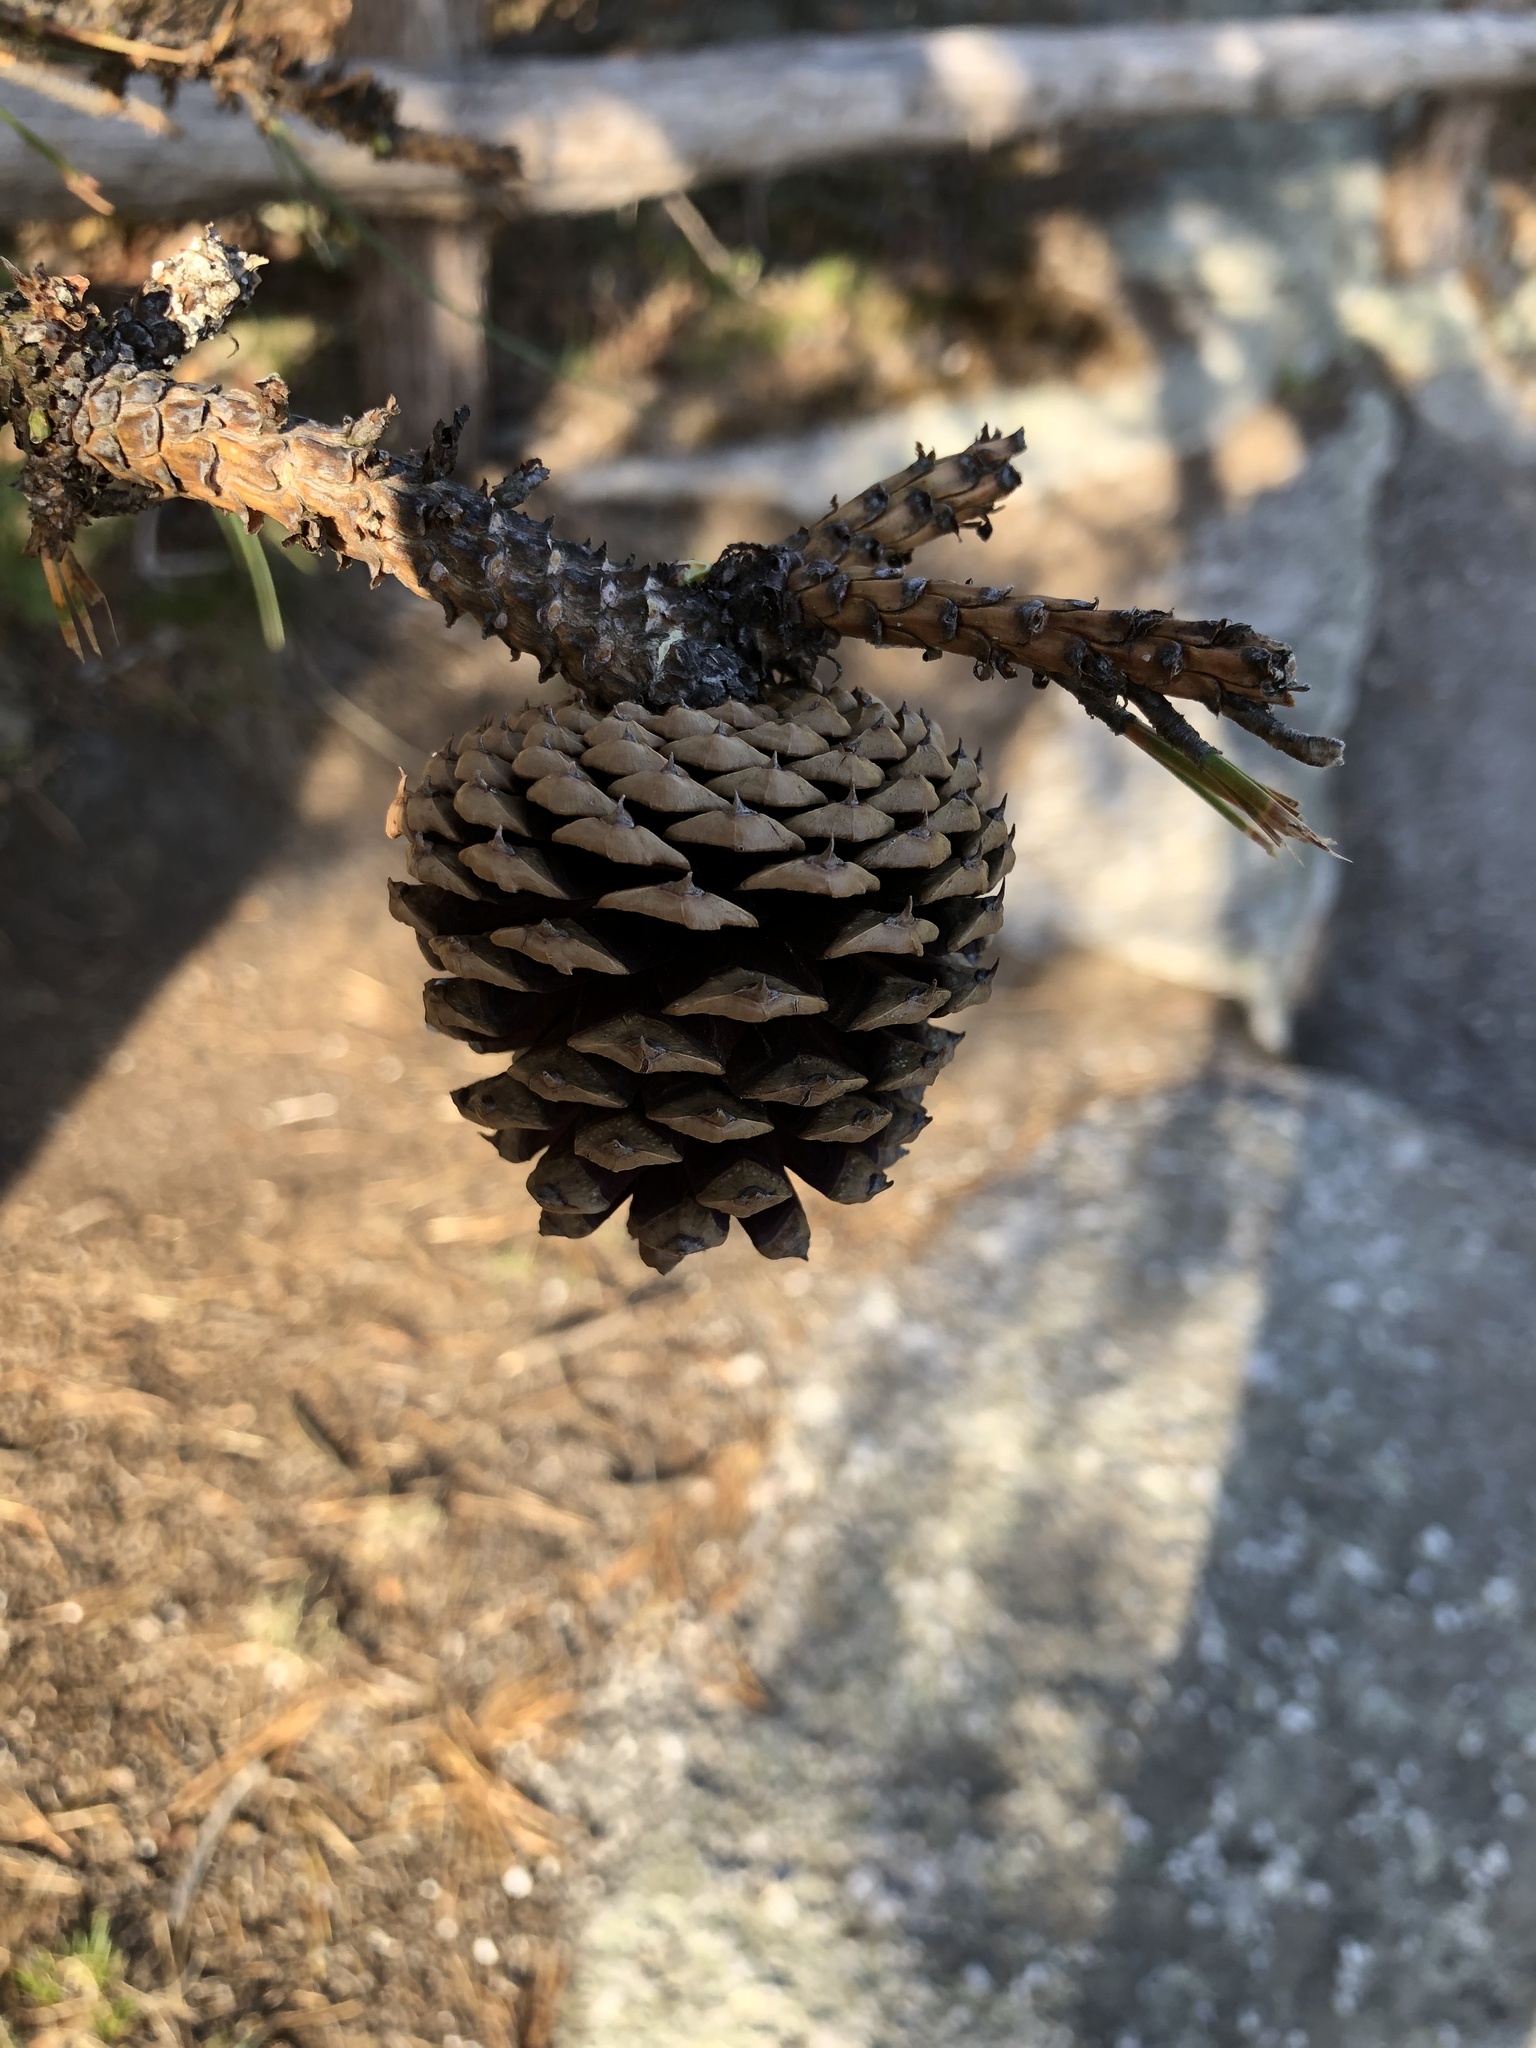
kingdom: Plantae
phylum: Tracheophyta
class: Pinopsida
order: Pinales
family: Pinaceae
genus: Pinus
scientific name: Pinus rigida
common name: Pitch pine
